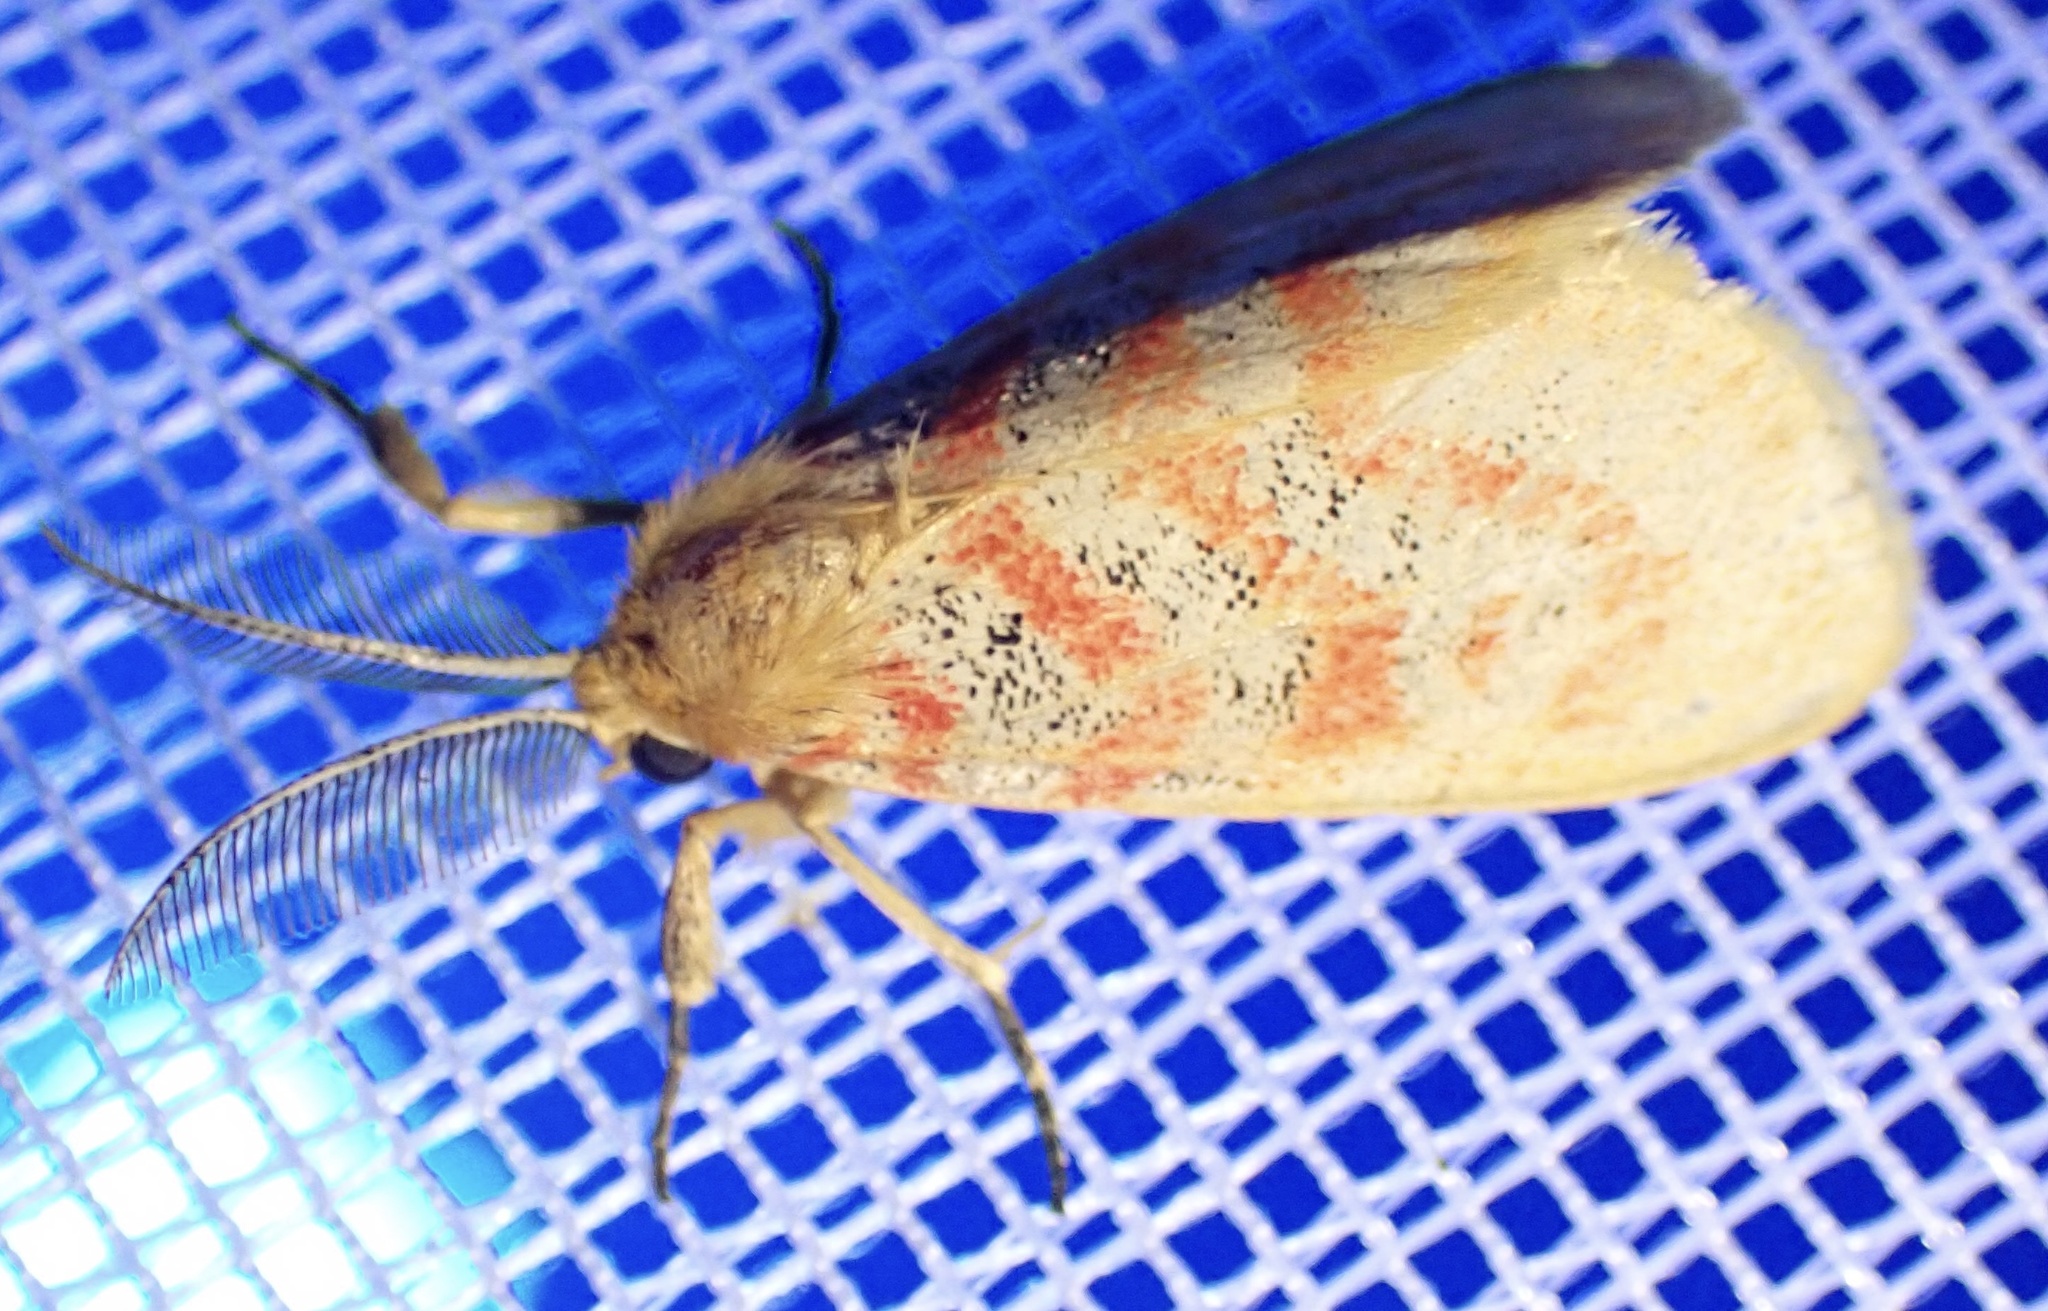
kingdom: Animalia
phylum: Arthropoda
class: Insecta
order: Lepidoptera
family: Erebidae
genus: Euproctoides
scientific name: Euproctoides acrisia
